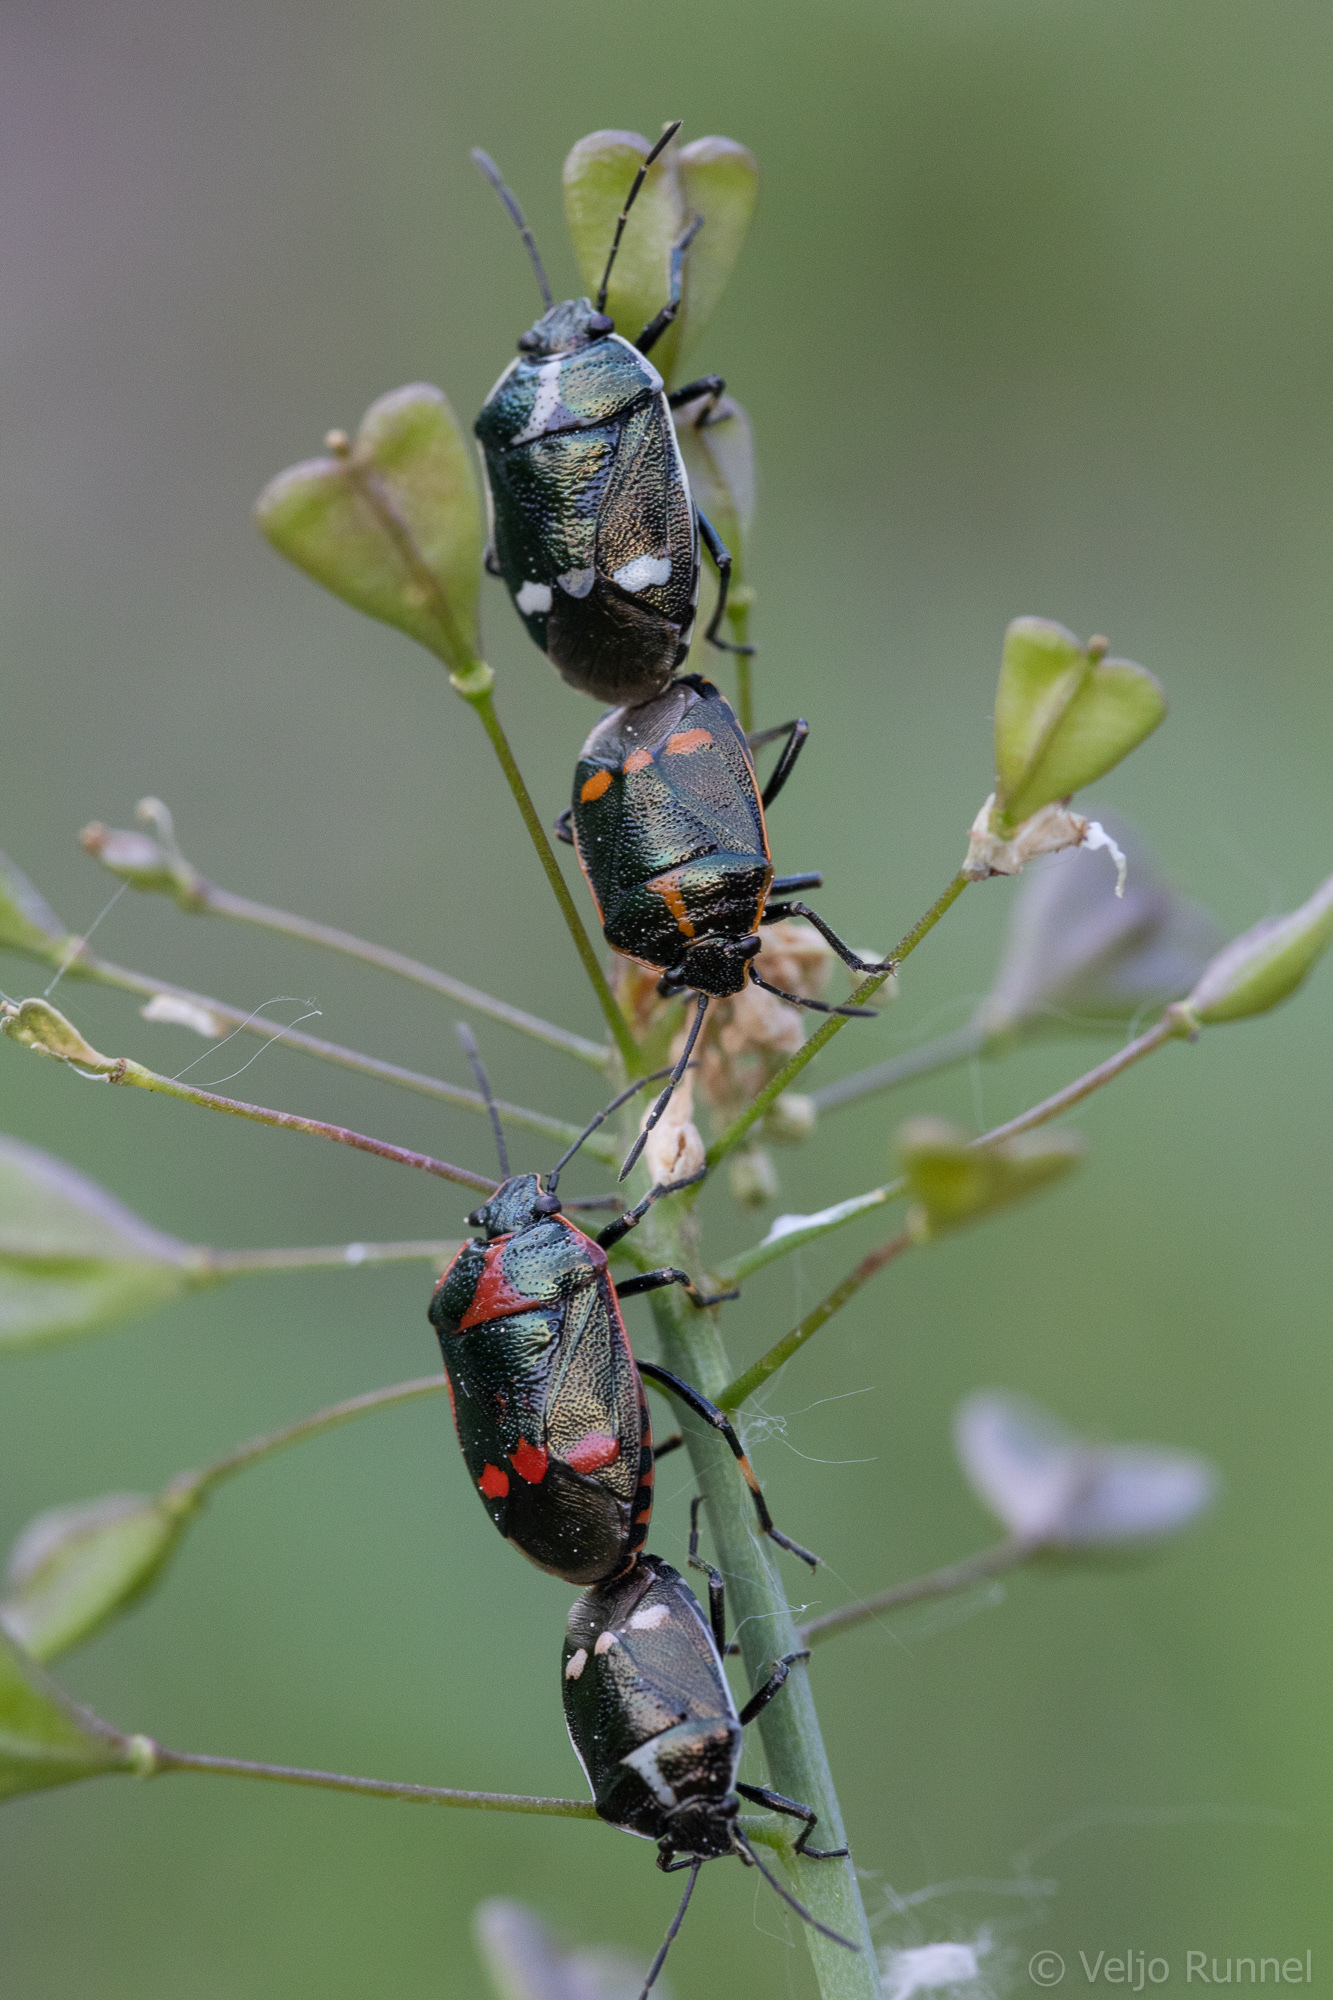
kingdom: Animalia
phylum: Arthropoda
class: Insecta
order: Hemiptera
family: Pentatomidae
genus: Eurydema
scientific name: Eurydema oleracea
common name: Cabbage bug
